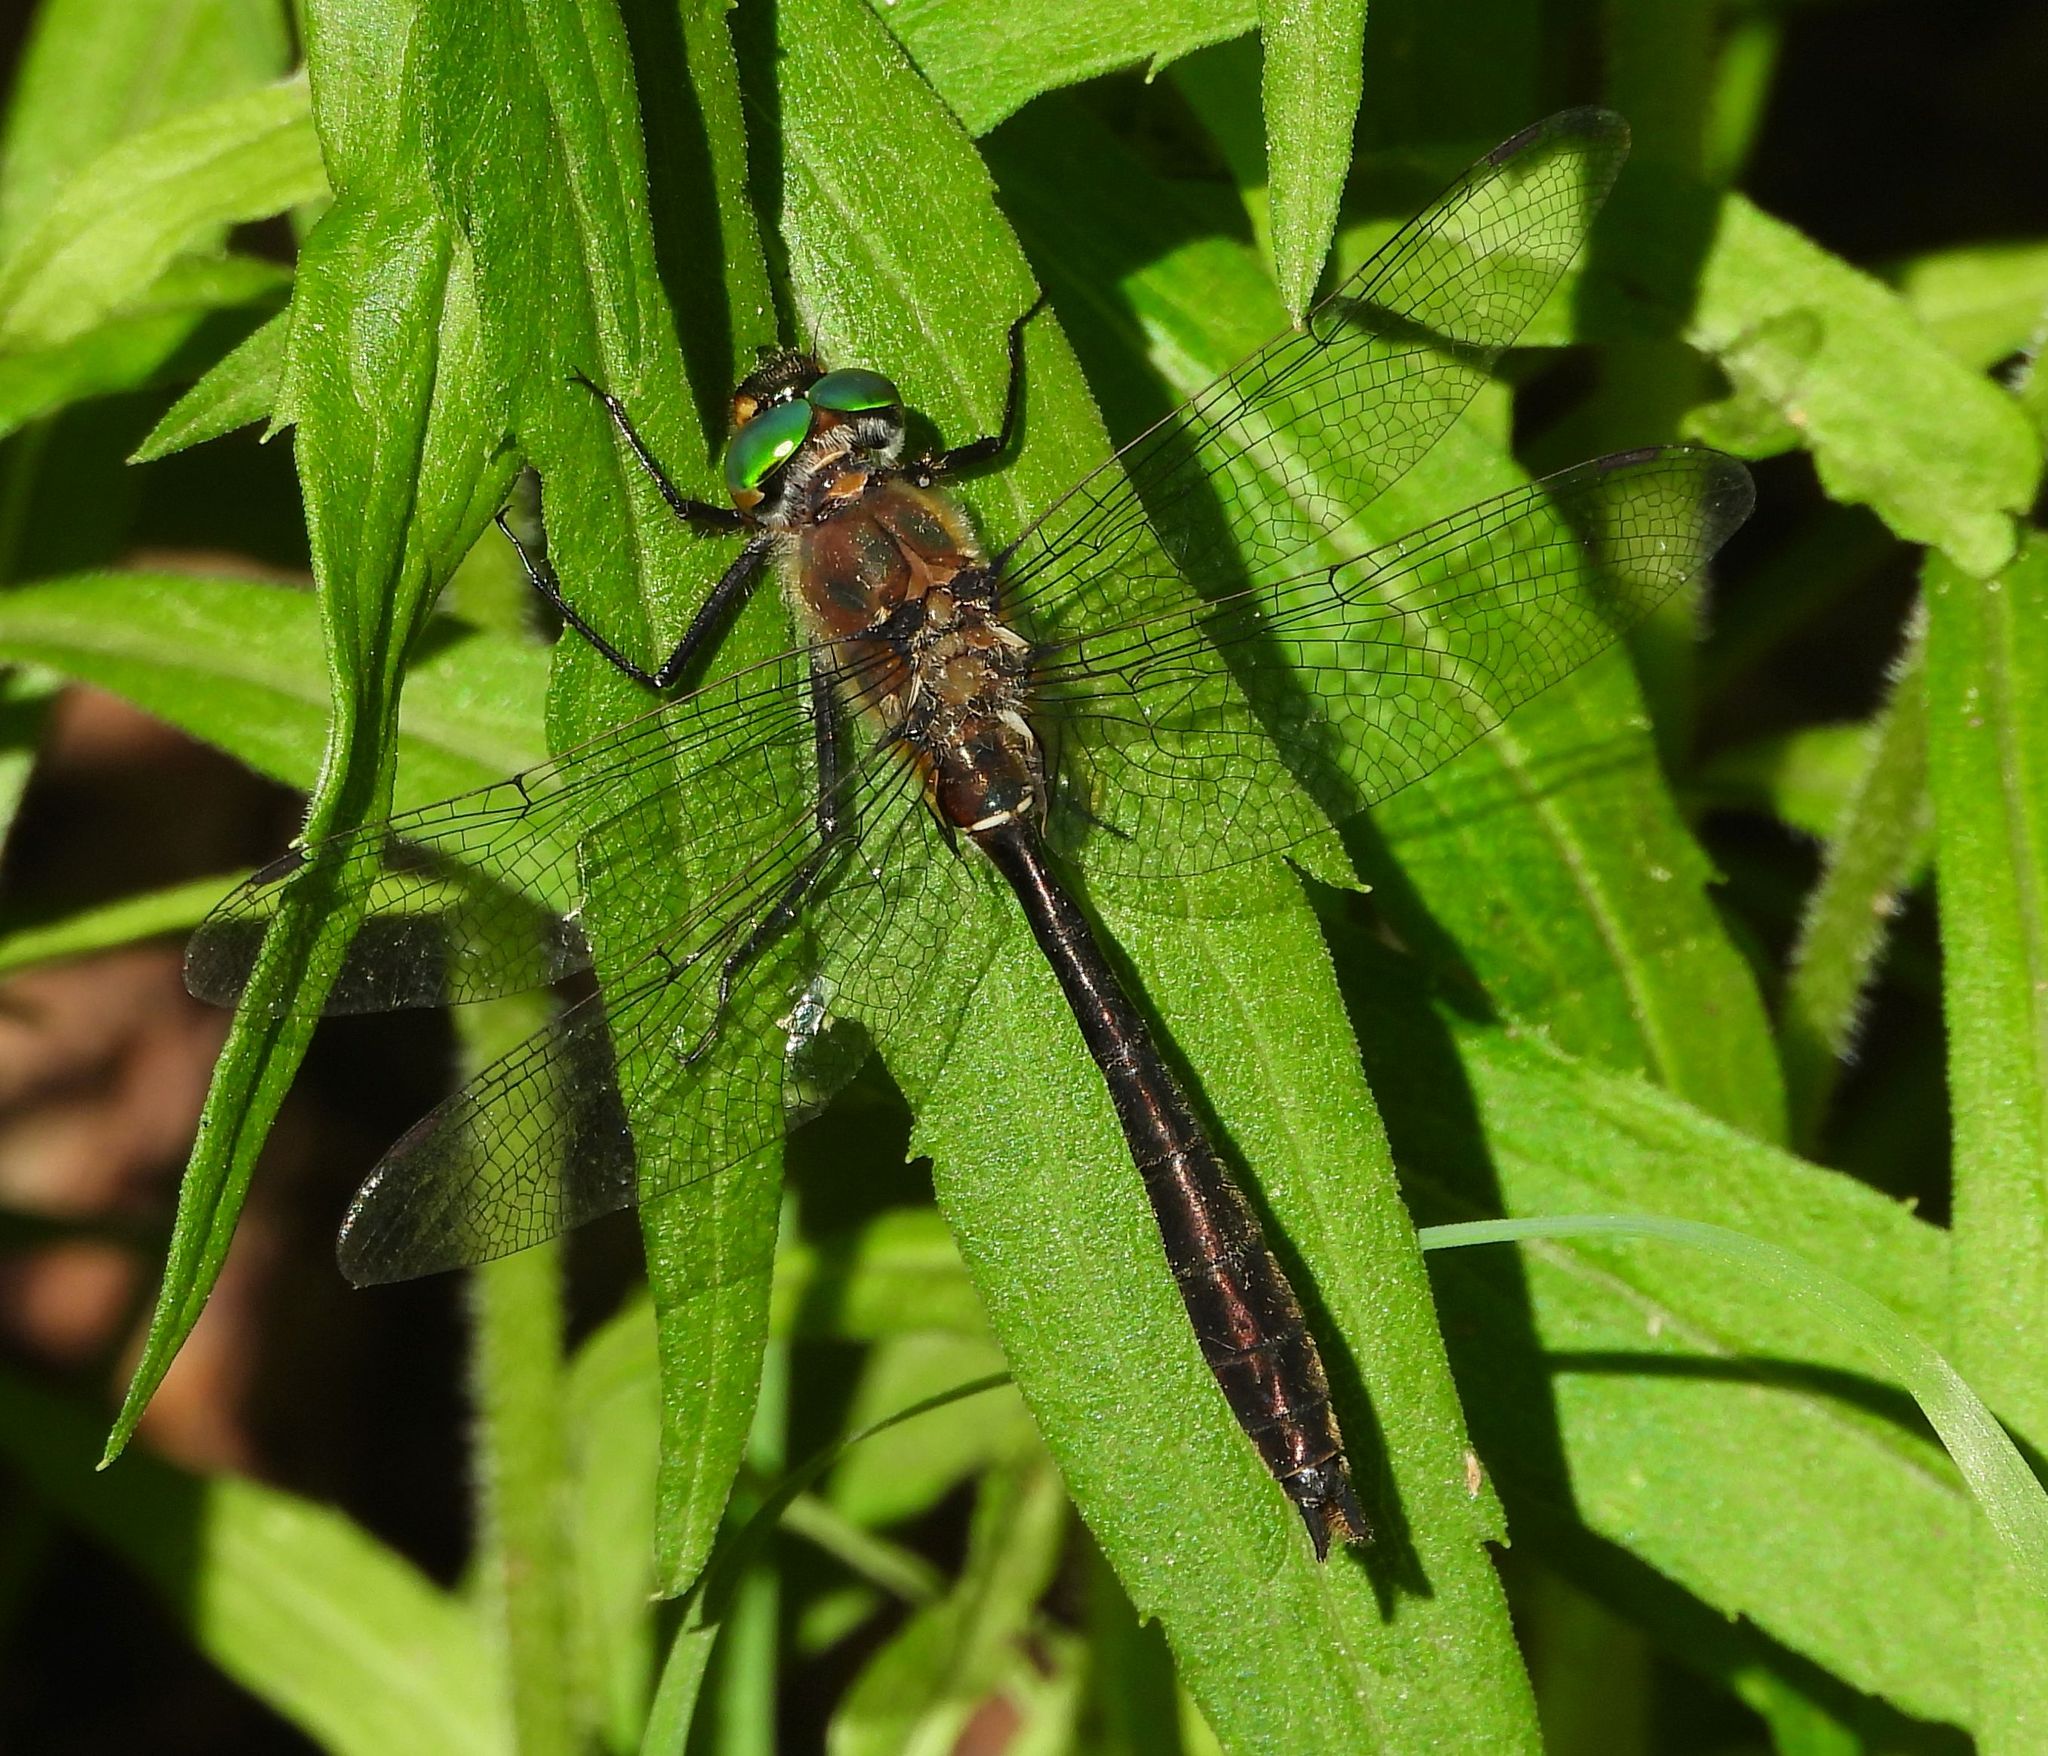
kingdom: Animalia
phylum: Arthropoda
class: Insecta
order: Odonata
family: Corduliidae
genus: Cordulia
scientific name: Cordulia shurtleffii
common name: American emerald
